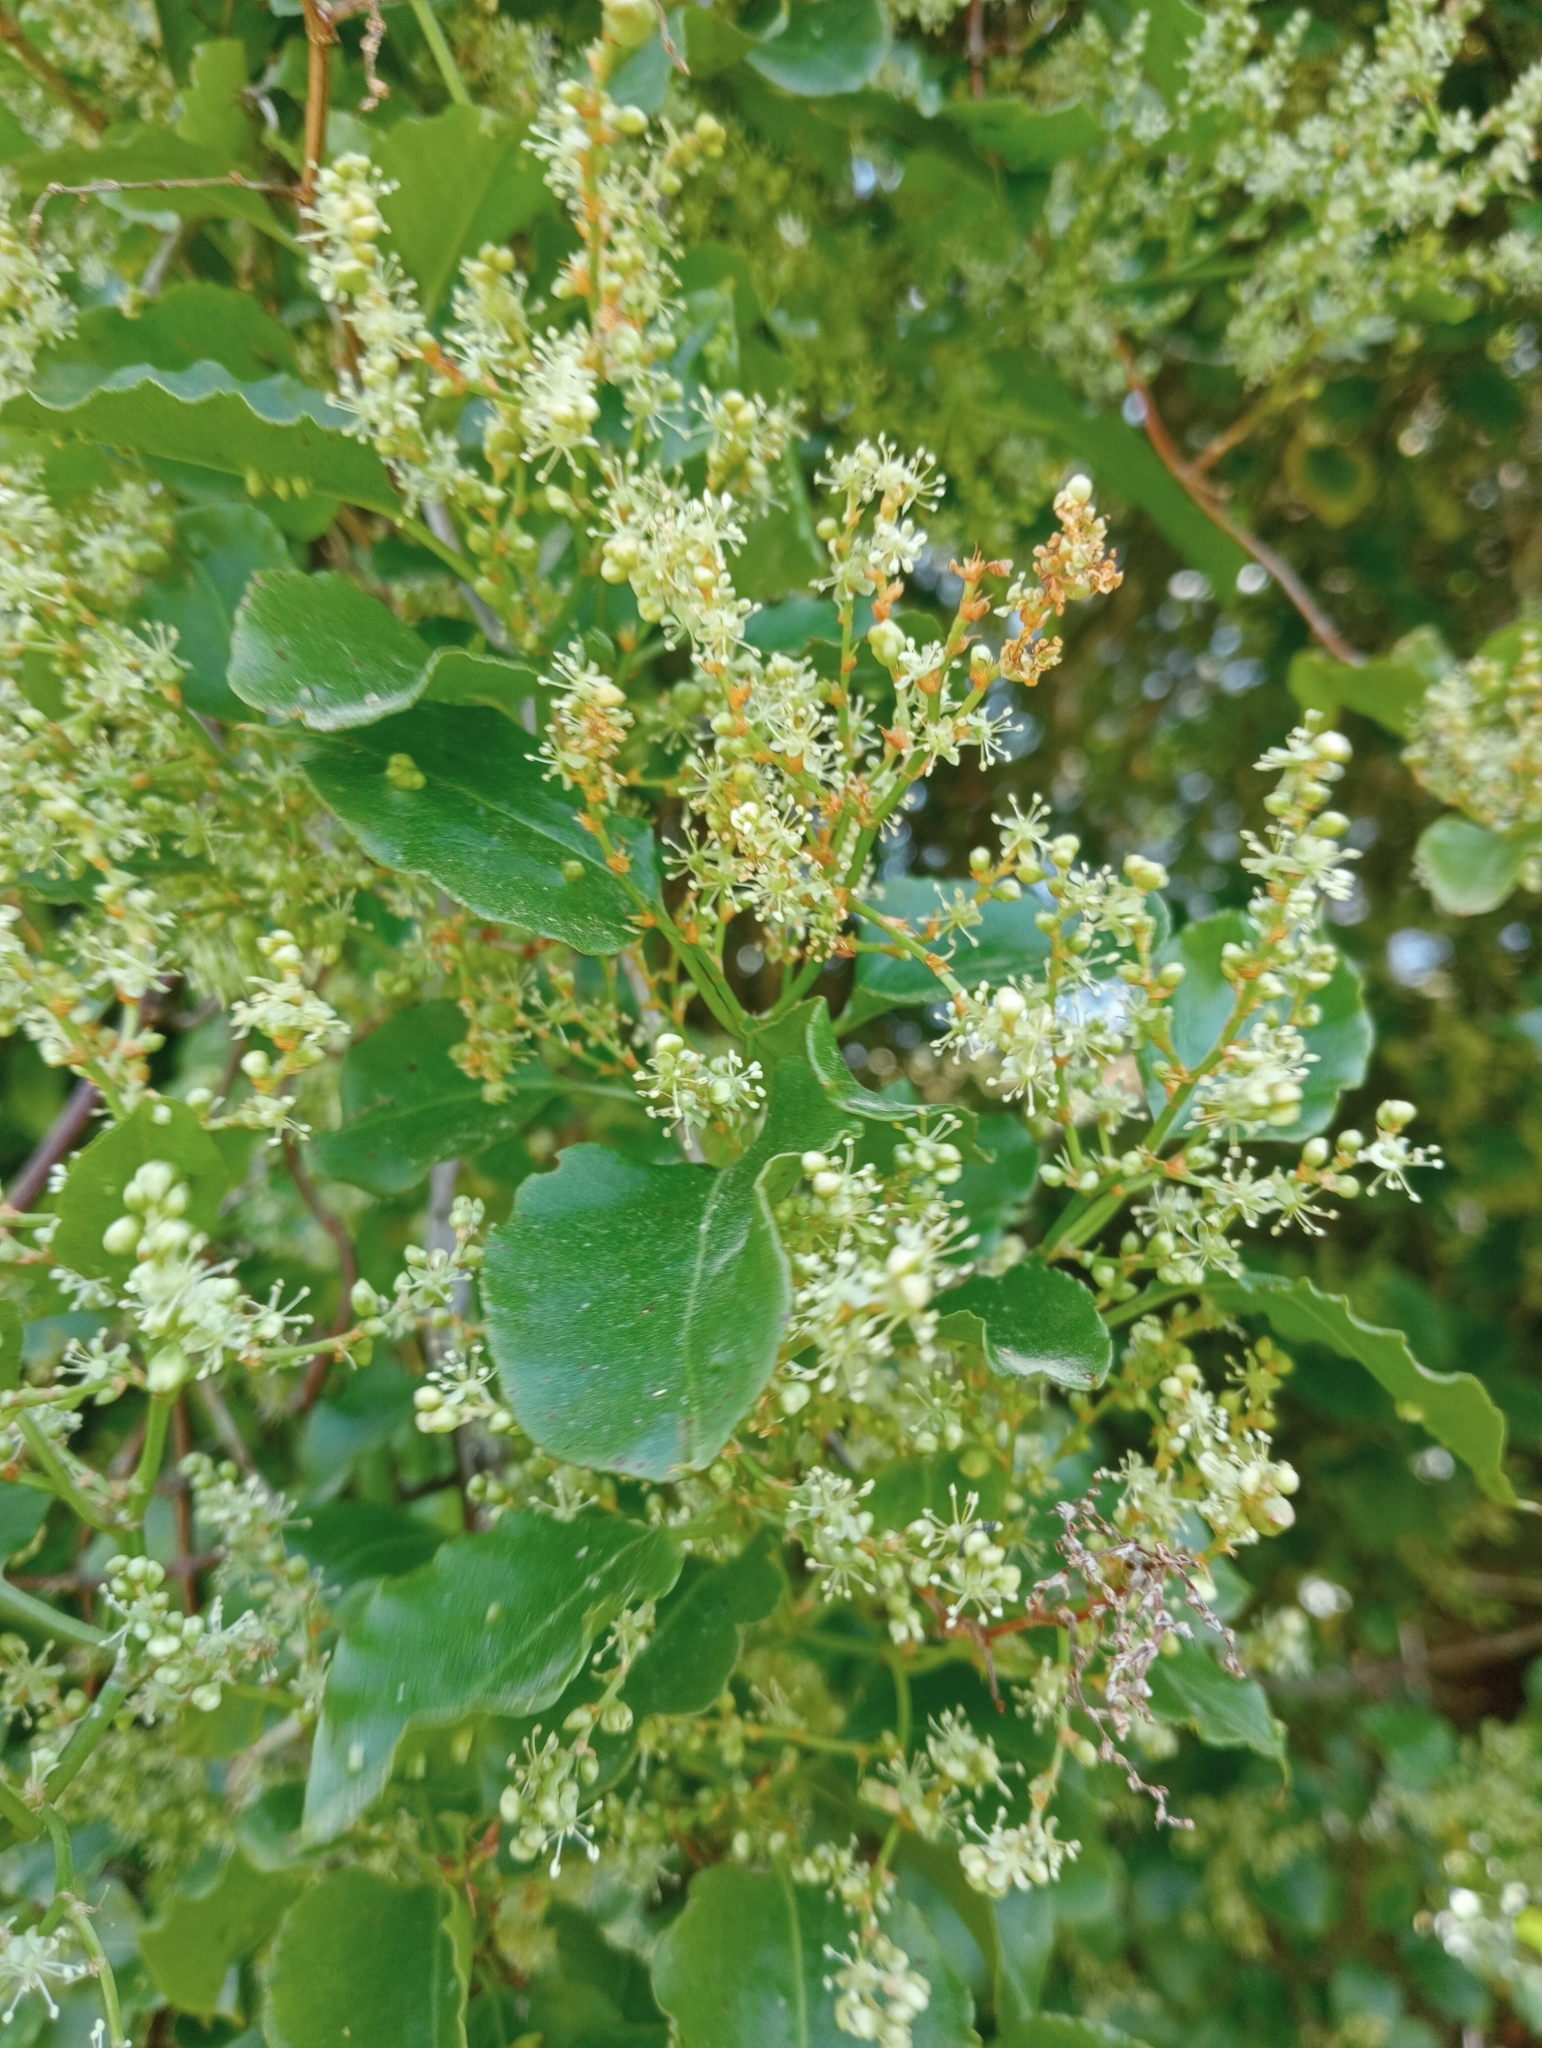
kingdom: Plantae
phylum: Tracheophyta
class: Magnoliopsida
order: Caryophyllales
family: Polygonaceae
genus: Muehlenbeckia
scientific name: Muehlenbeckia australis
